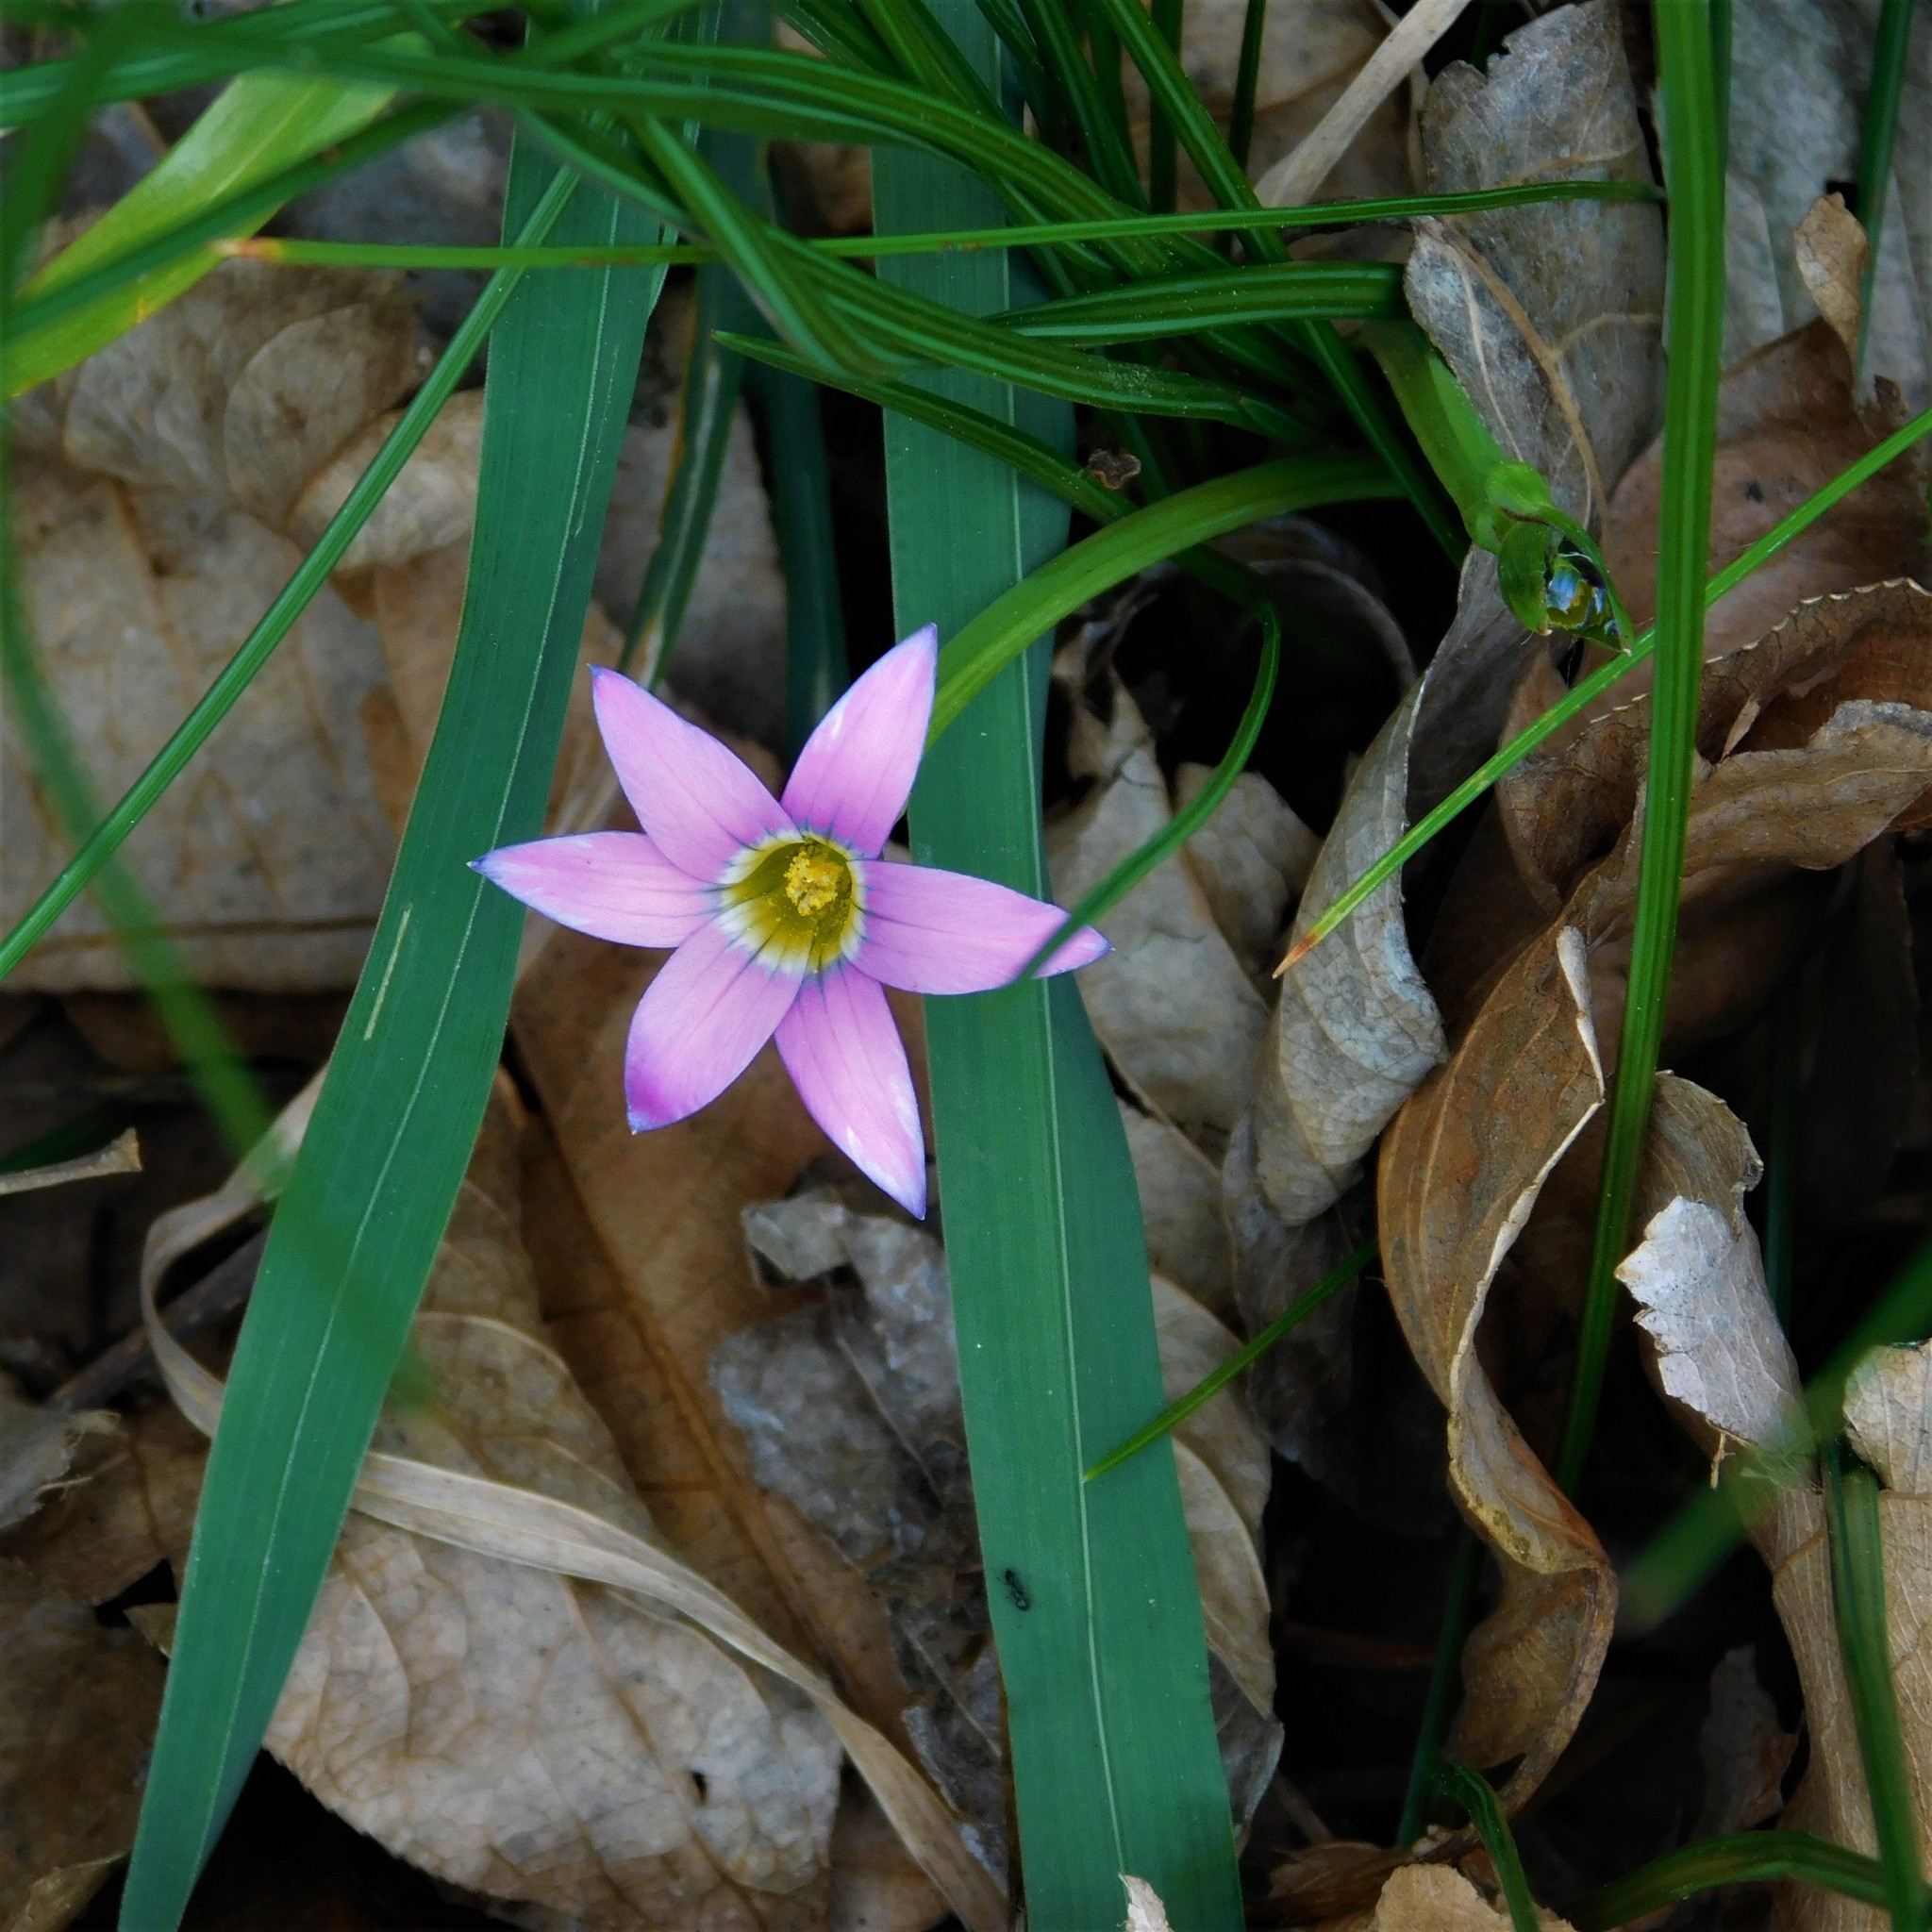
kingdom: Plantae
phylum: Tracheophyta
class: Liliopsida
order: Asparagales
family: Iridaceae
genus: Romulea
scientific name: Romulea rosea
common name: Oniongrass
